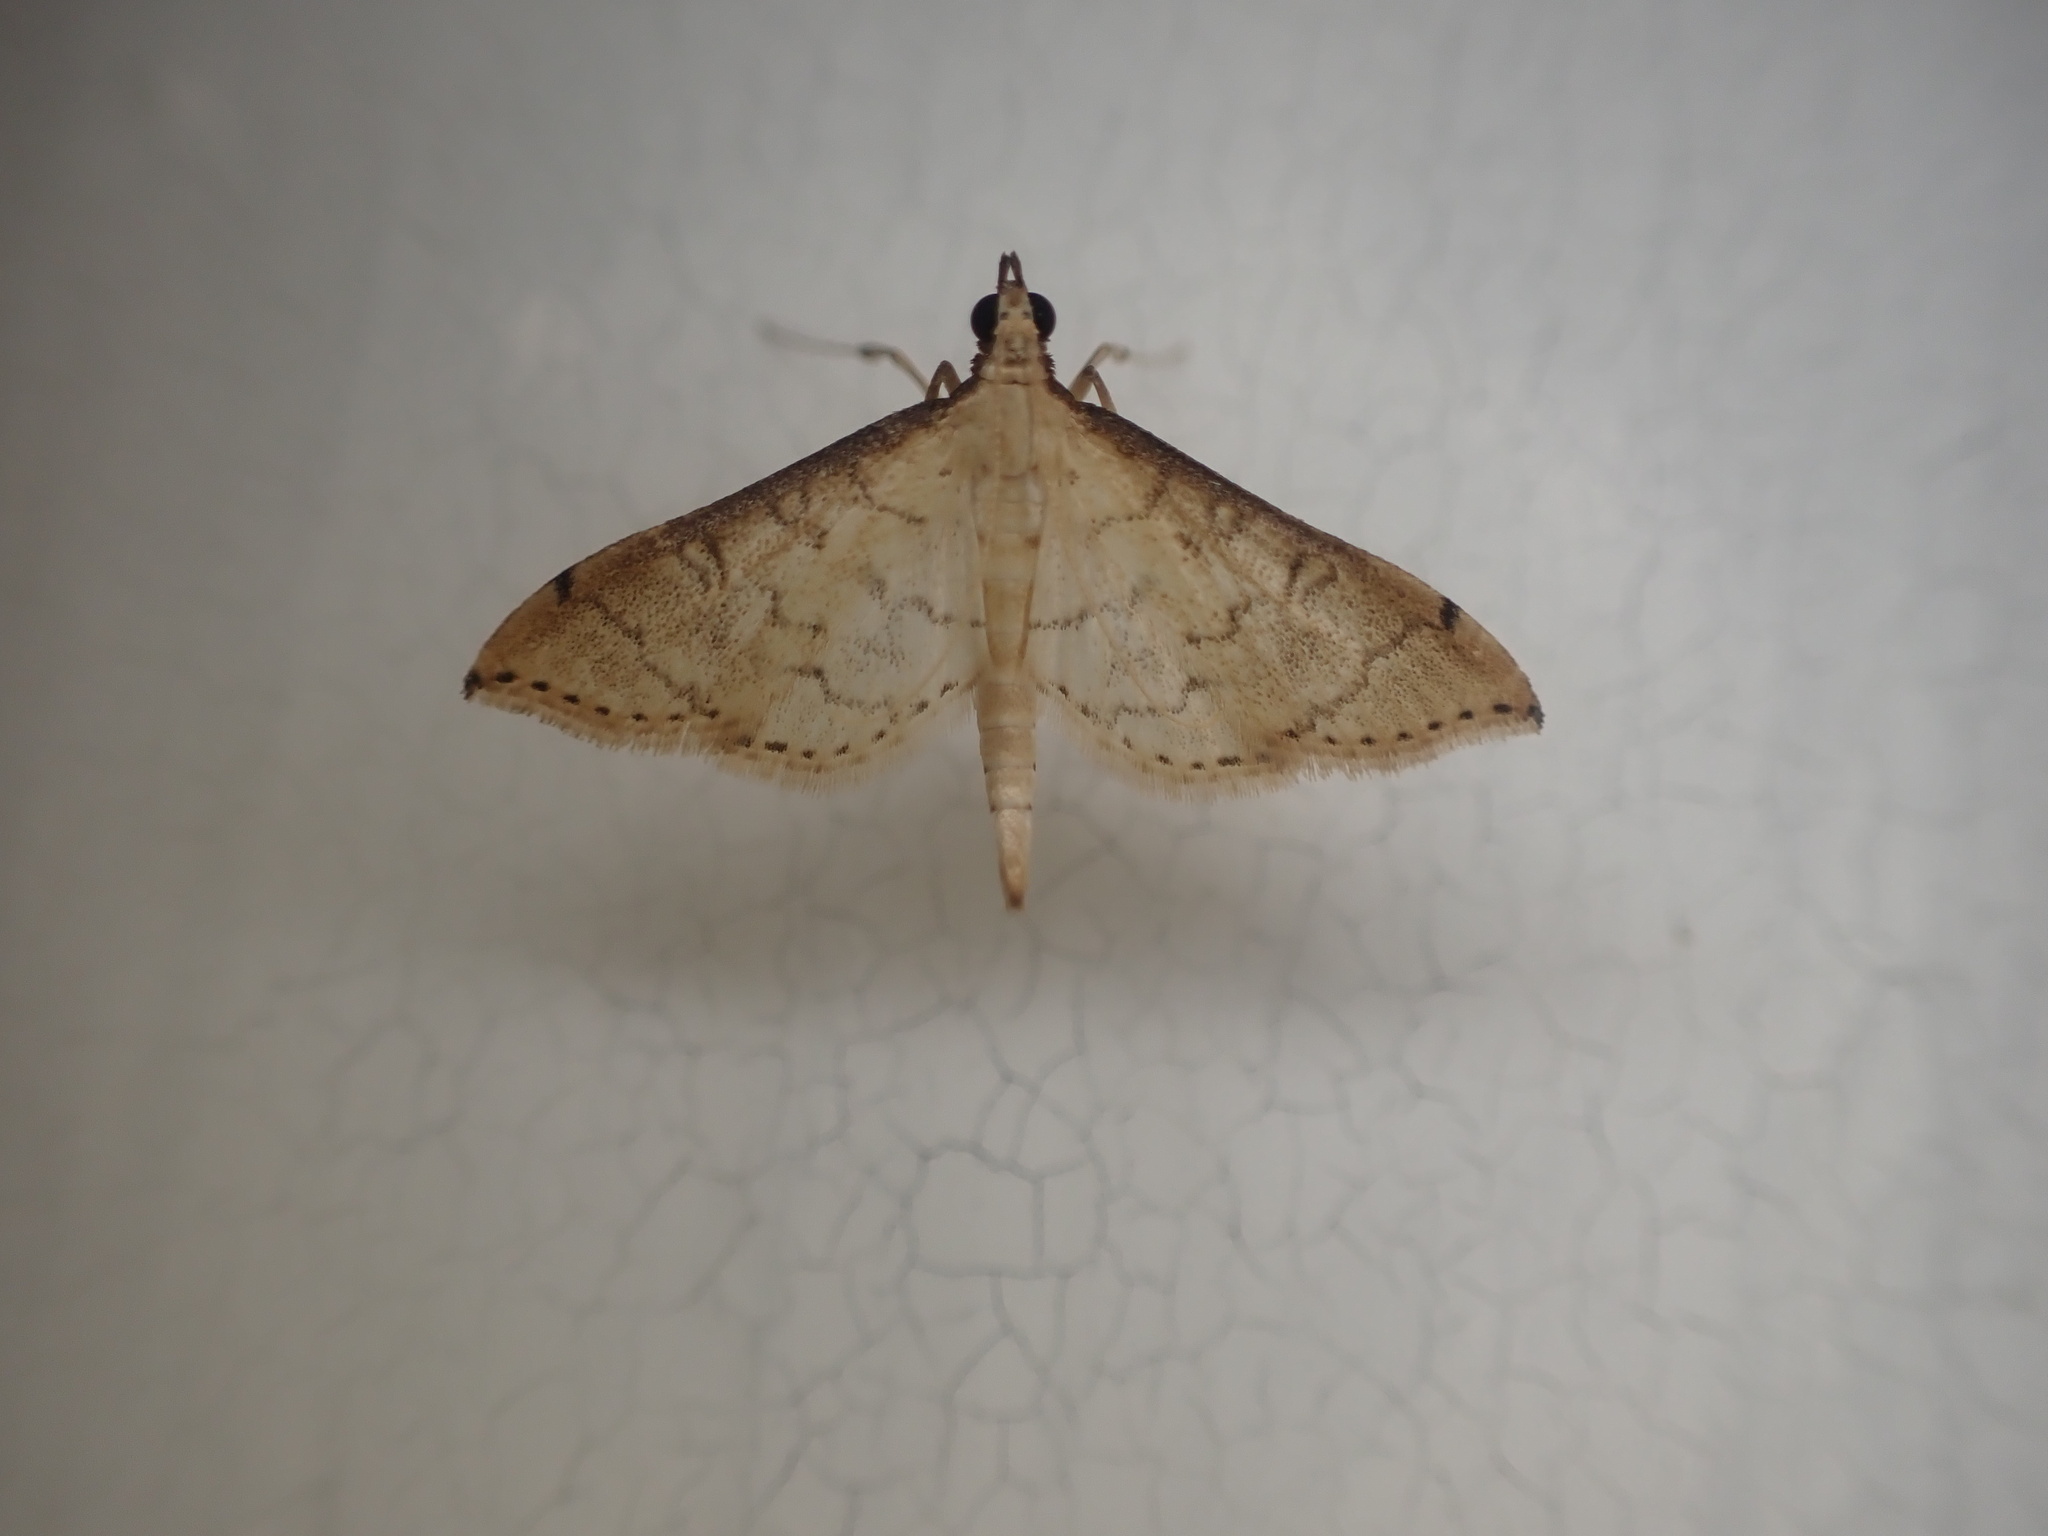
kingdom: Animalia
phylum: Arthropoda
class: Insecta
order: Lepidoptera
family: Crambidae
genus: Lamprosema
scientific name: Lamprosema
